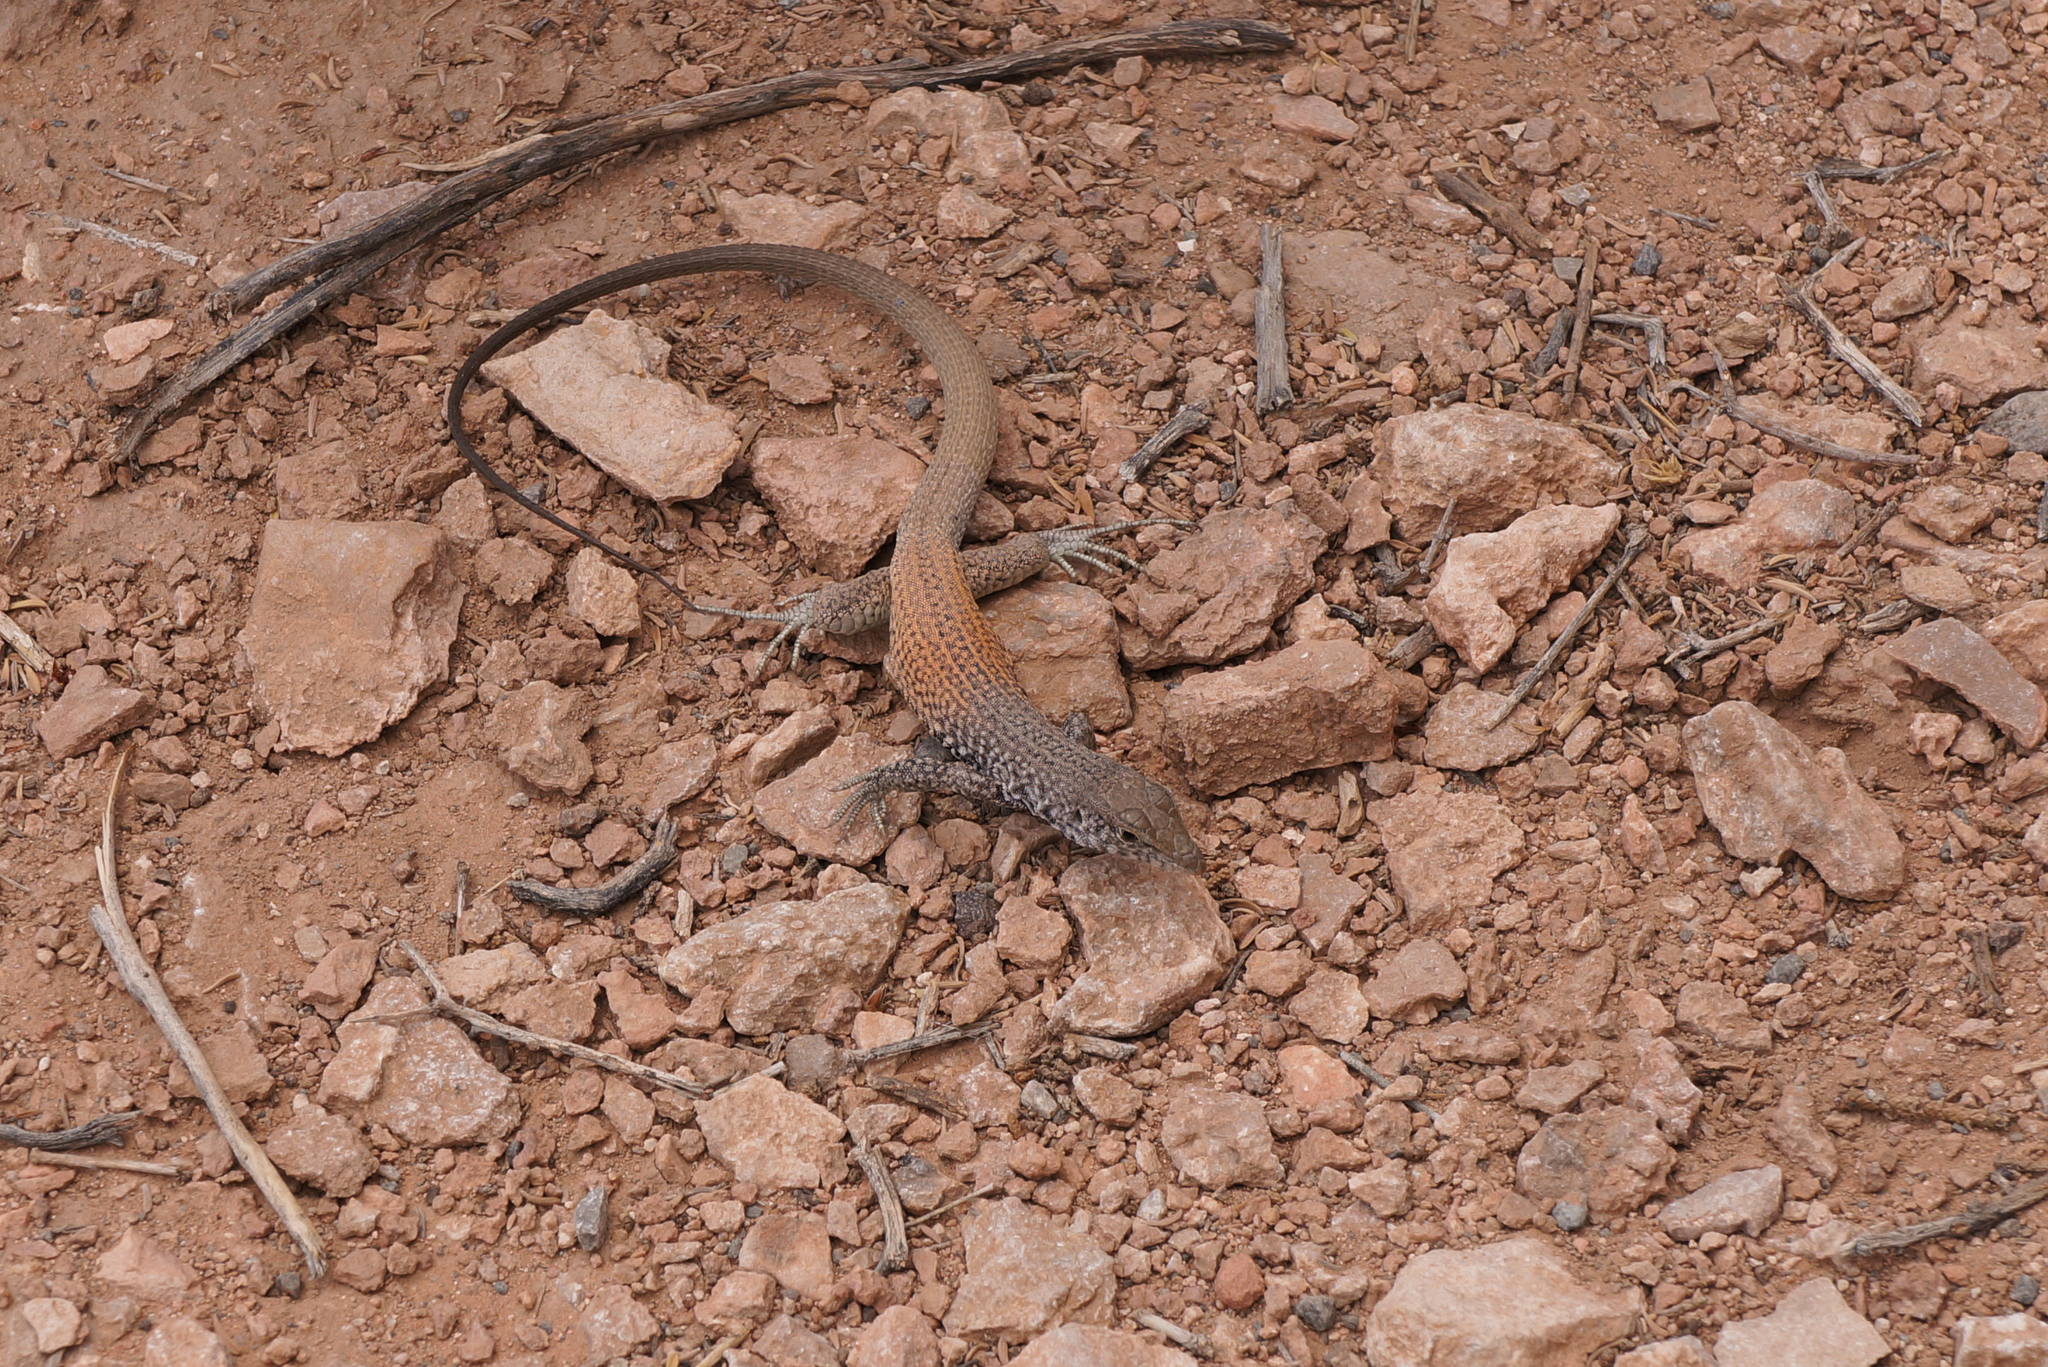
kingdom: Animalia
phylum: Chordata
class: Squamata
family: Teiidae
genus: Aspidoscelis
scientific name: Aspidoscelis tigris
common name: Tiger whiptail
